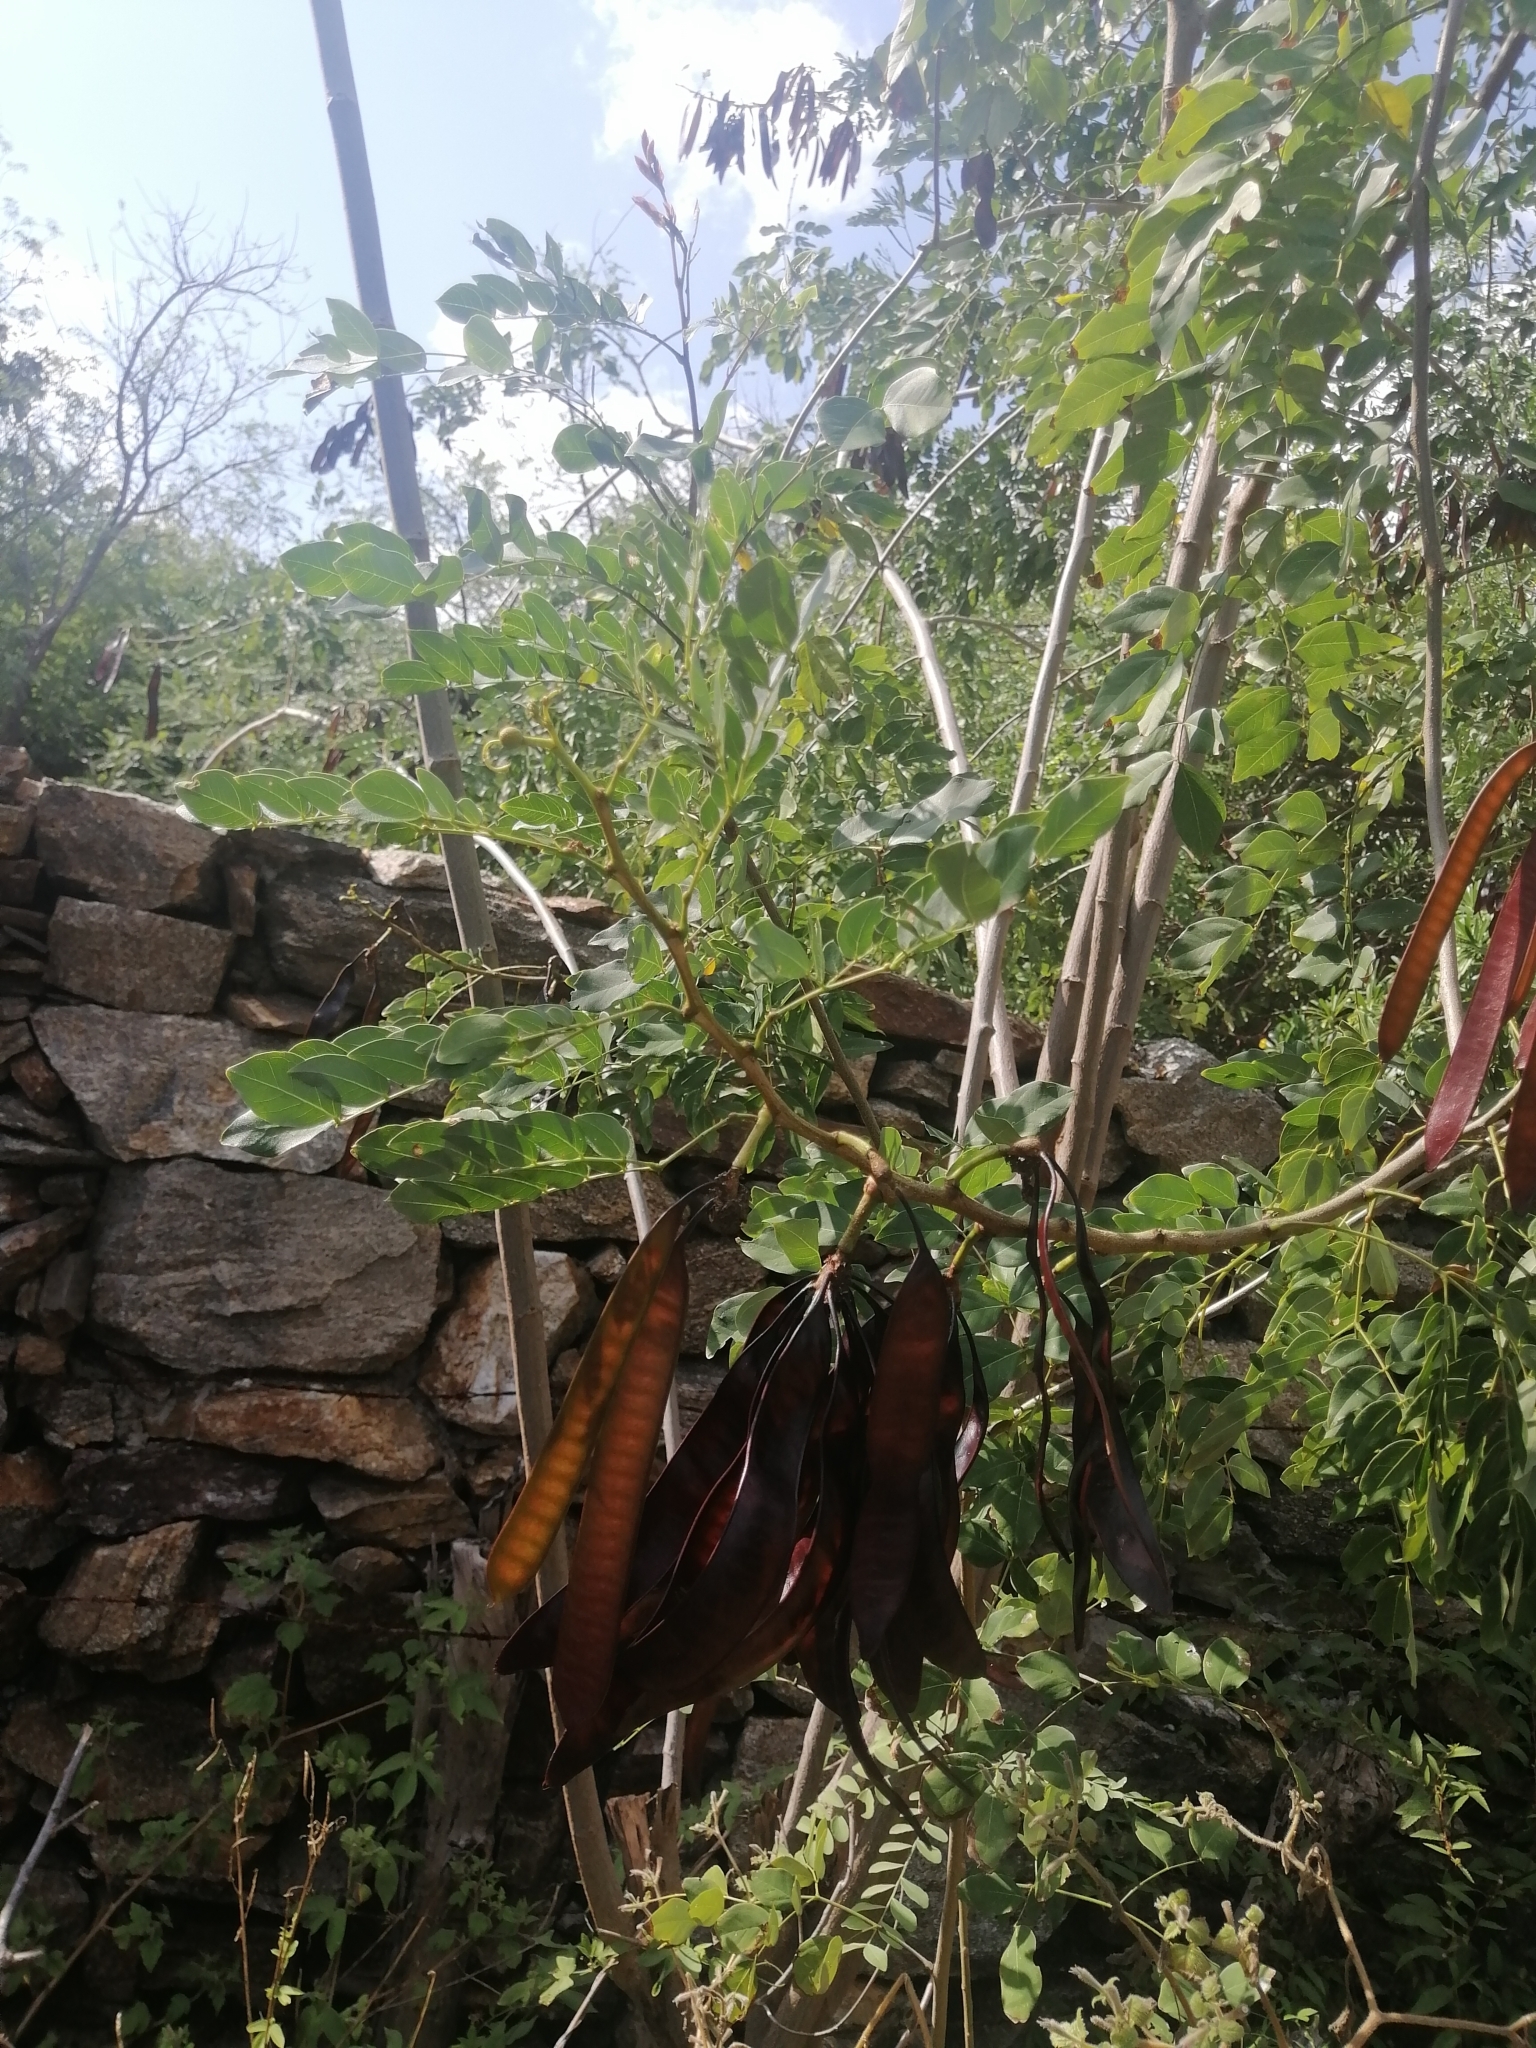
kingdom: Plantae
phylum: Tracheophyta
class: Magnoliopsida
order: Fabales
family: Fabaceae
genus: Leucaena
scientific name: Leucaena lanceolata
